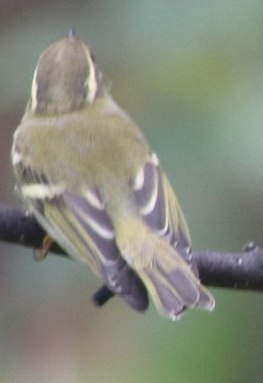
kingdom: Animalia
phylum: Chordata
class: Aves
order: Passeriformes
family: Phylloscopidae
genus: Phylloscopus
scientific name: Phylloscopus humei
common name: Hume's leaf warbler
